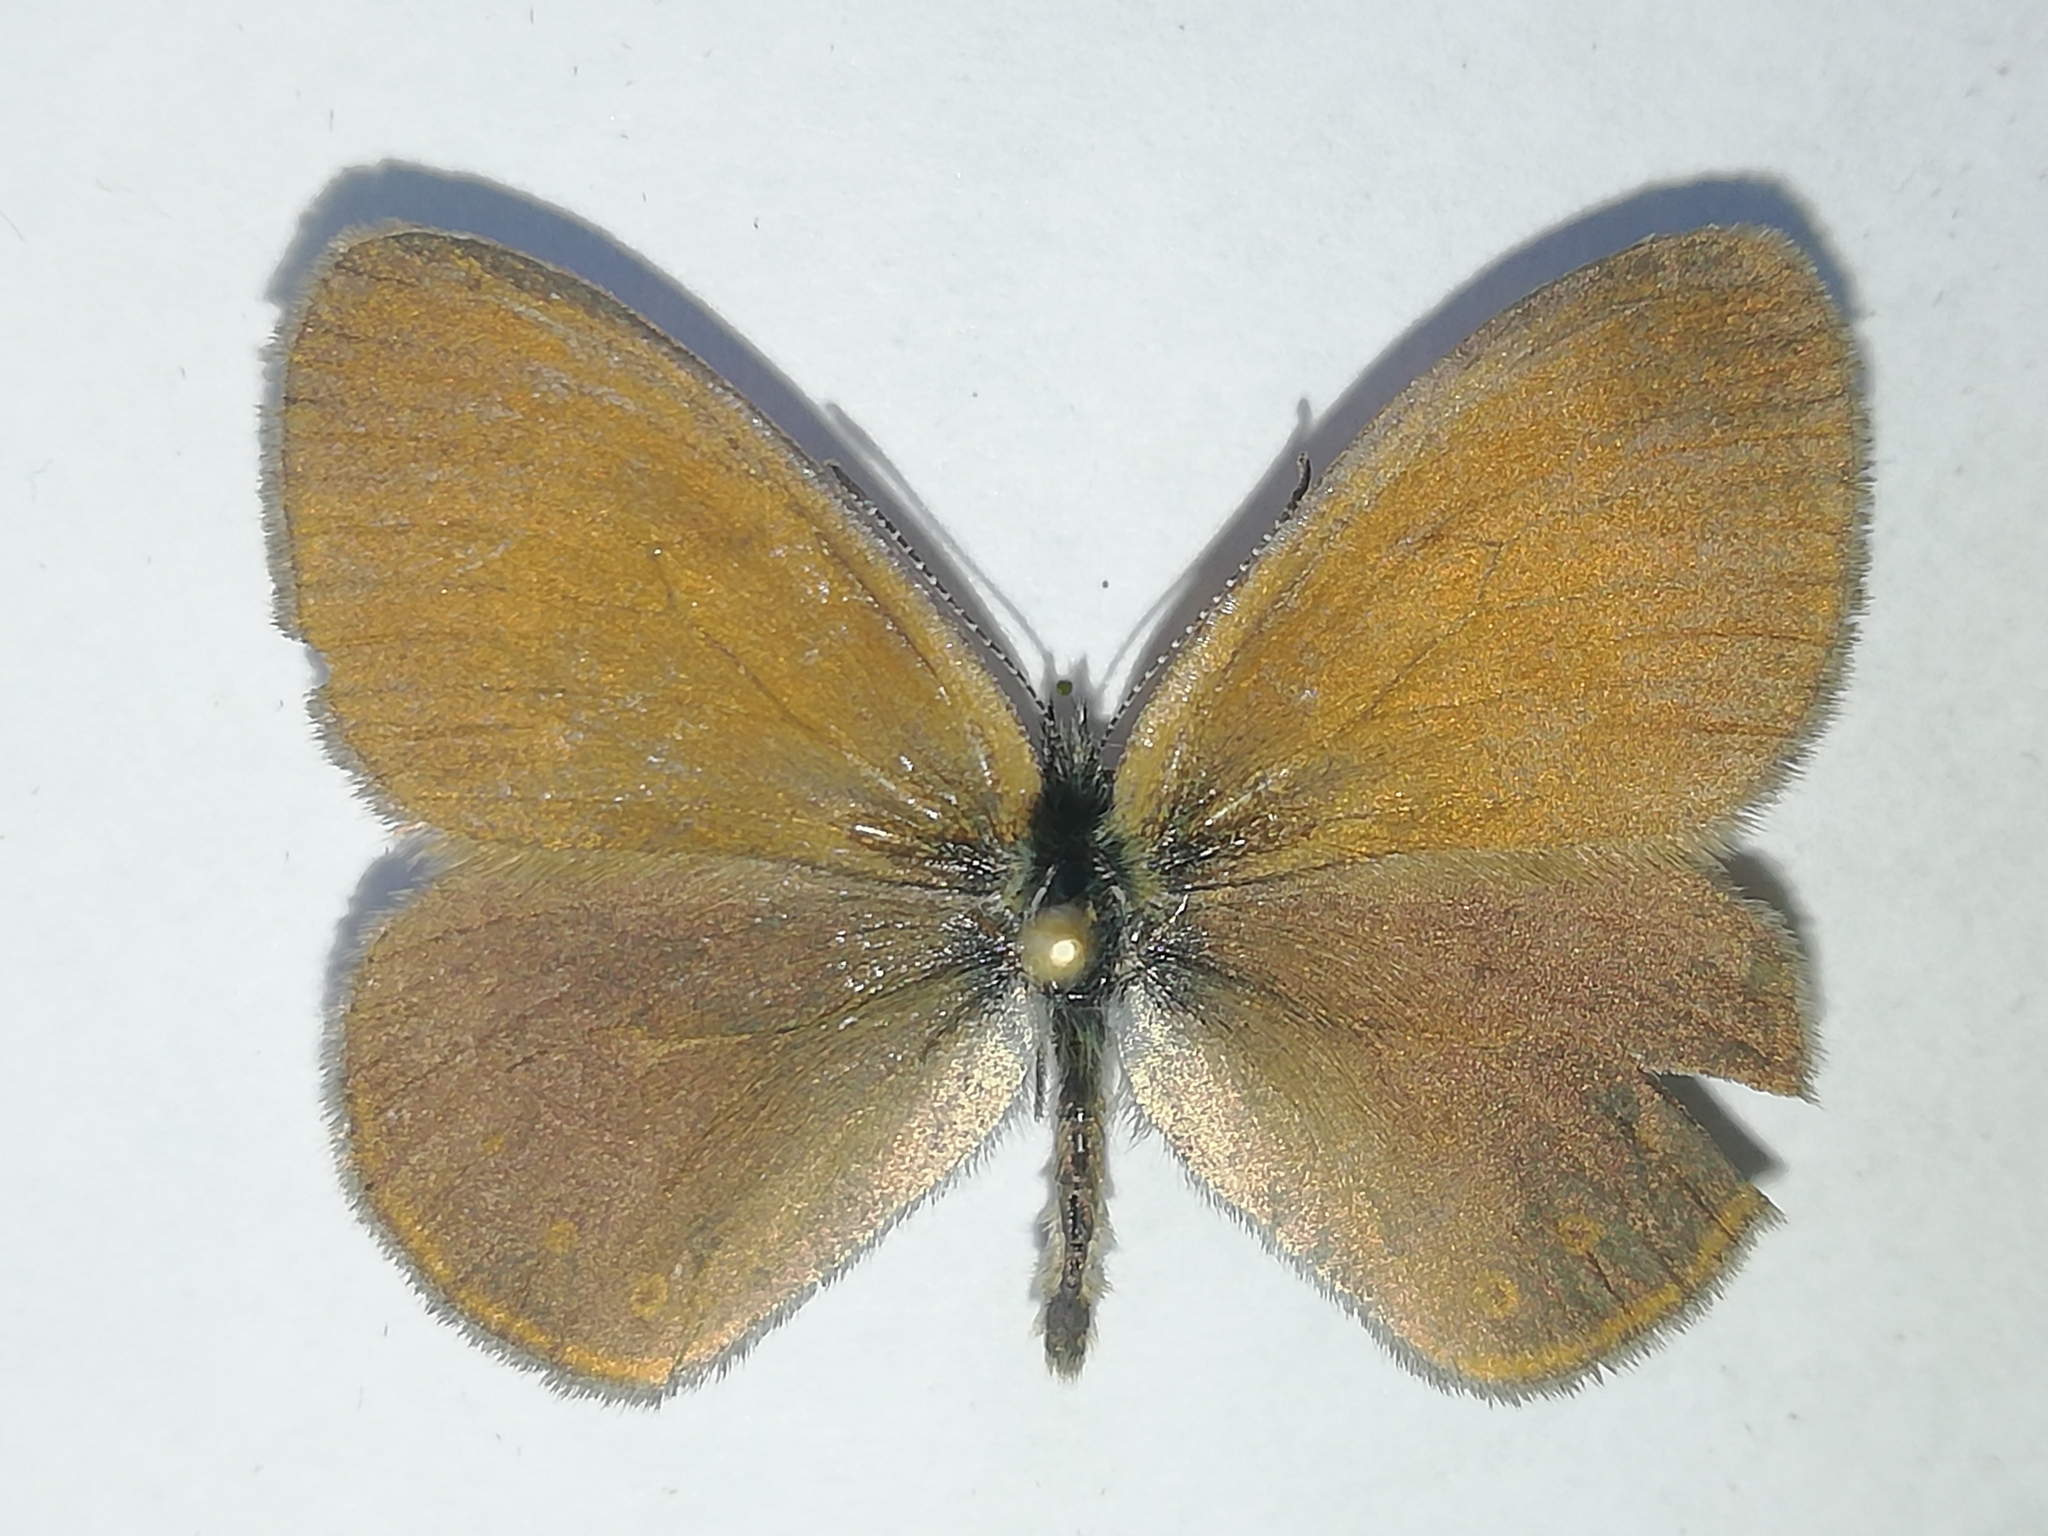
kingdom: Animalia
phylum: Arthropoda
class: Insecta
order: Lepidoptera
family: Nymphalidae
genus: Coenonympha
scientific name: Coenonympha iphis
